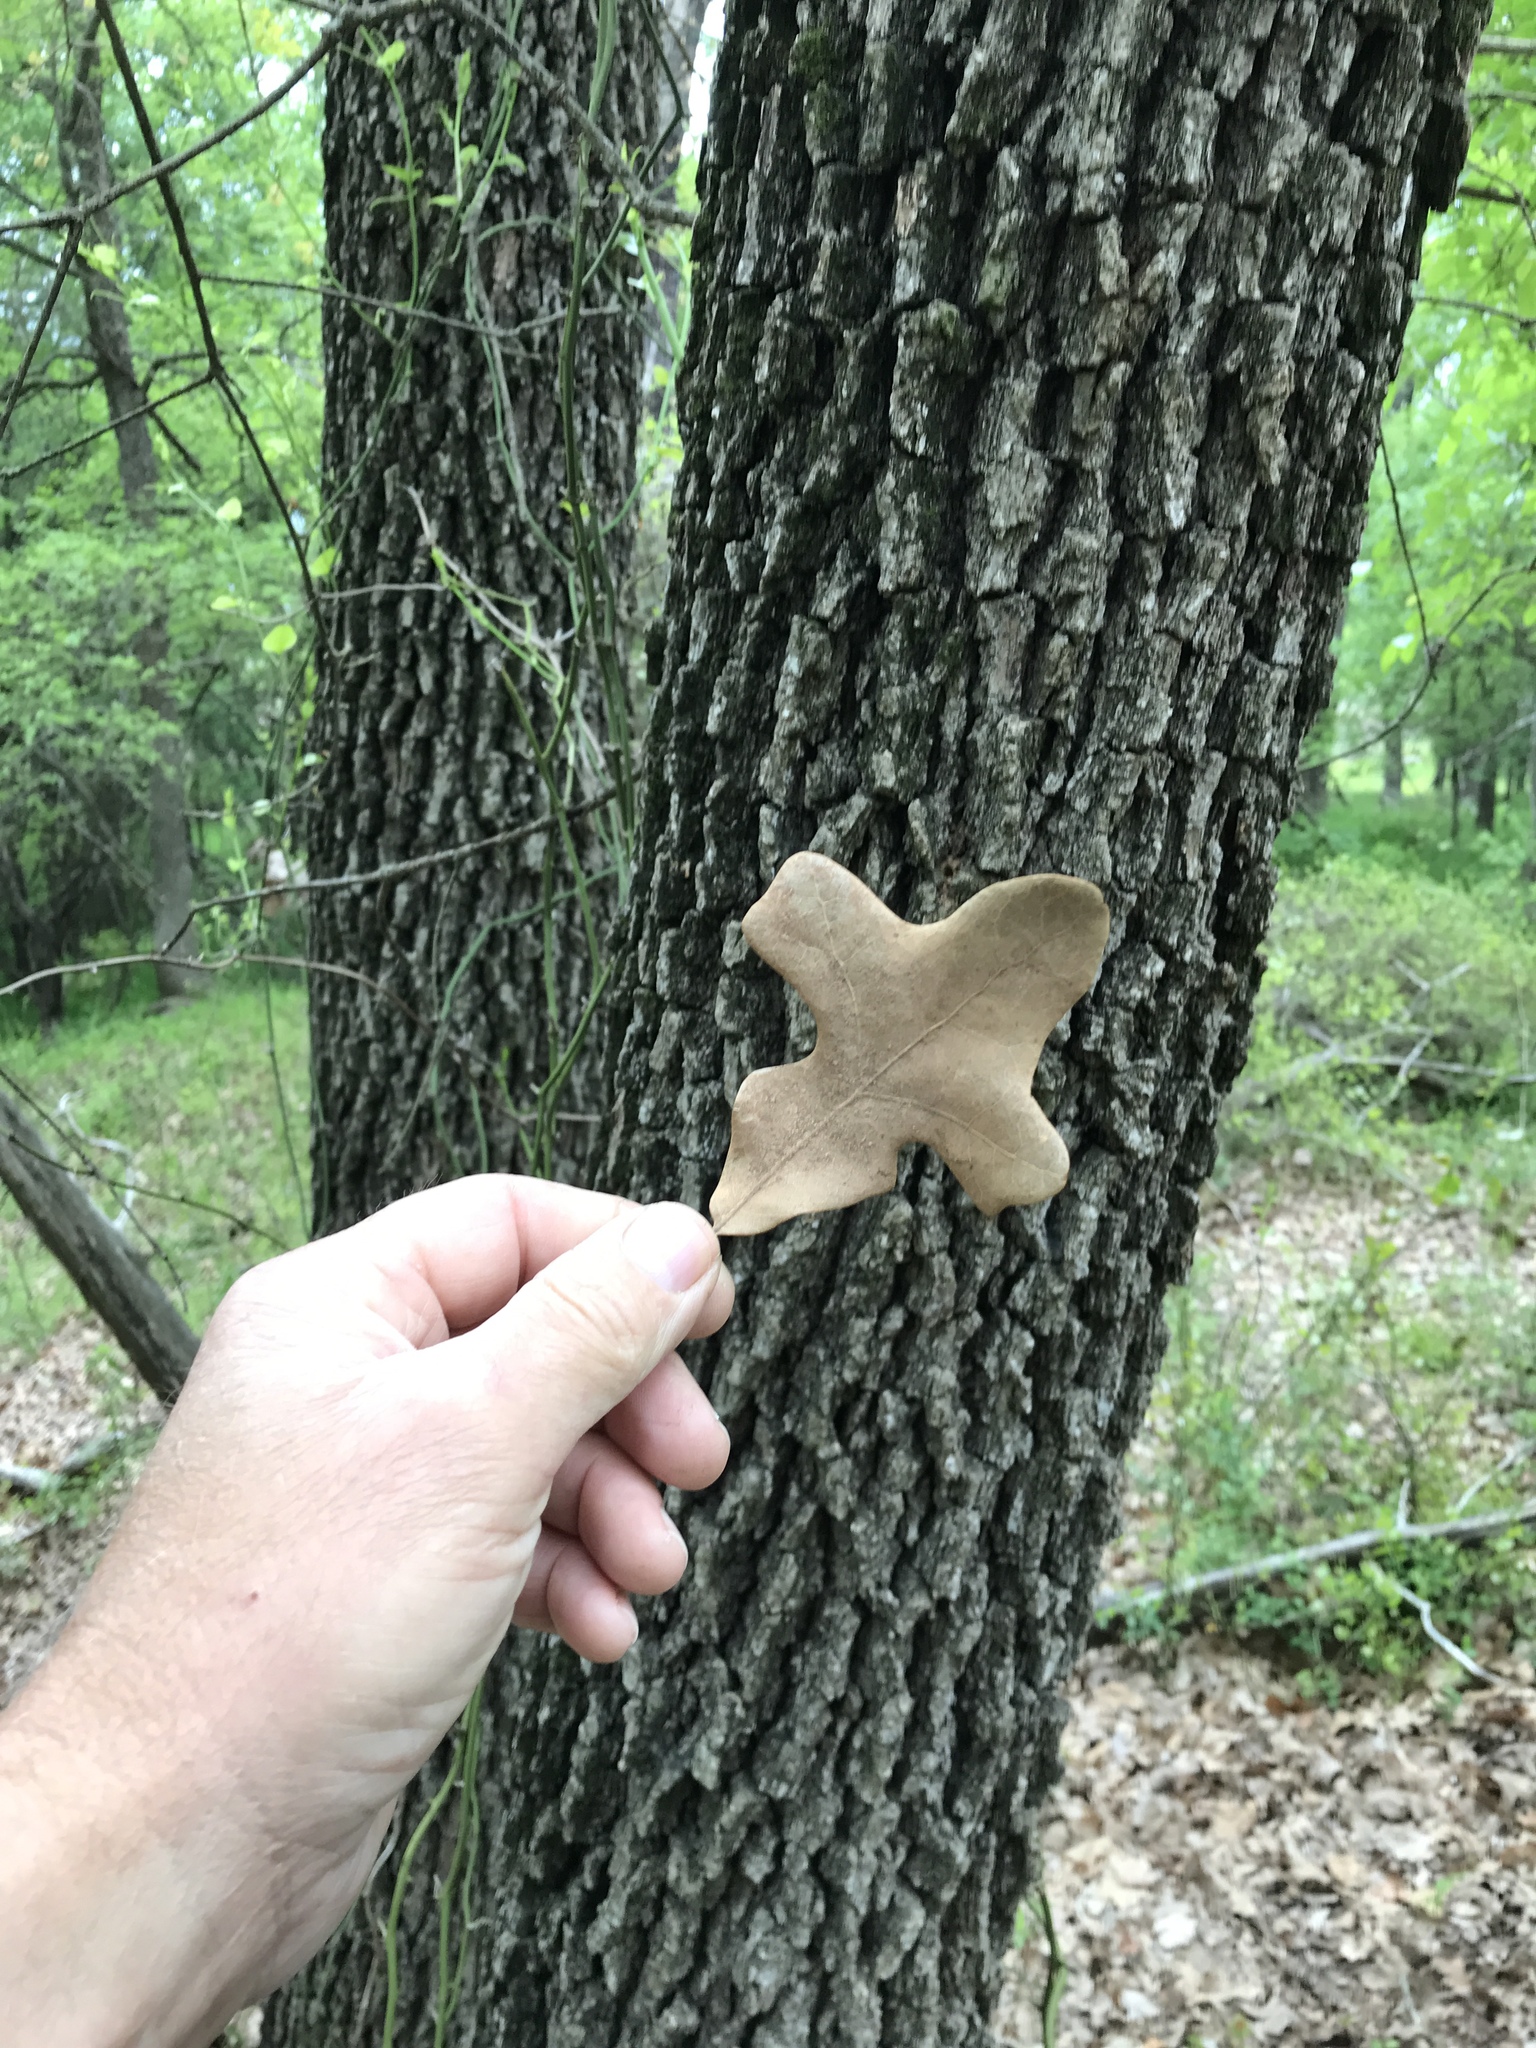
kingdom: Plantae
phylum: Tracheophyta
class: Magnoliopsida
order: Fagales
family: Fagaceae
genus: Quercus
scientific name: Quercus stellata
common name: Post oak
